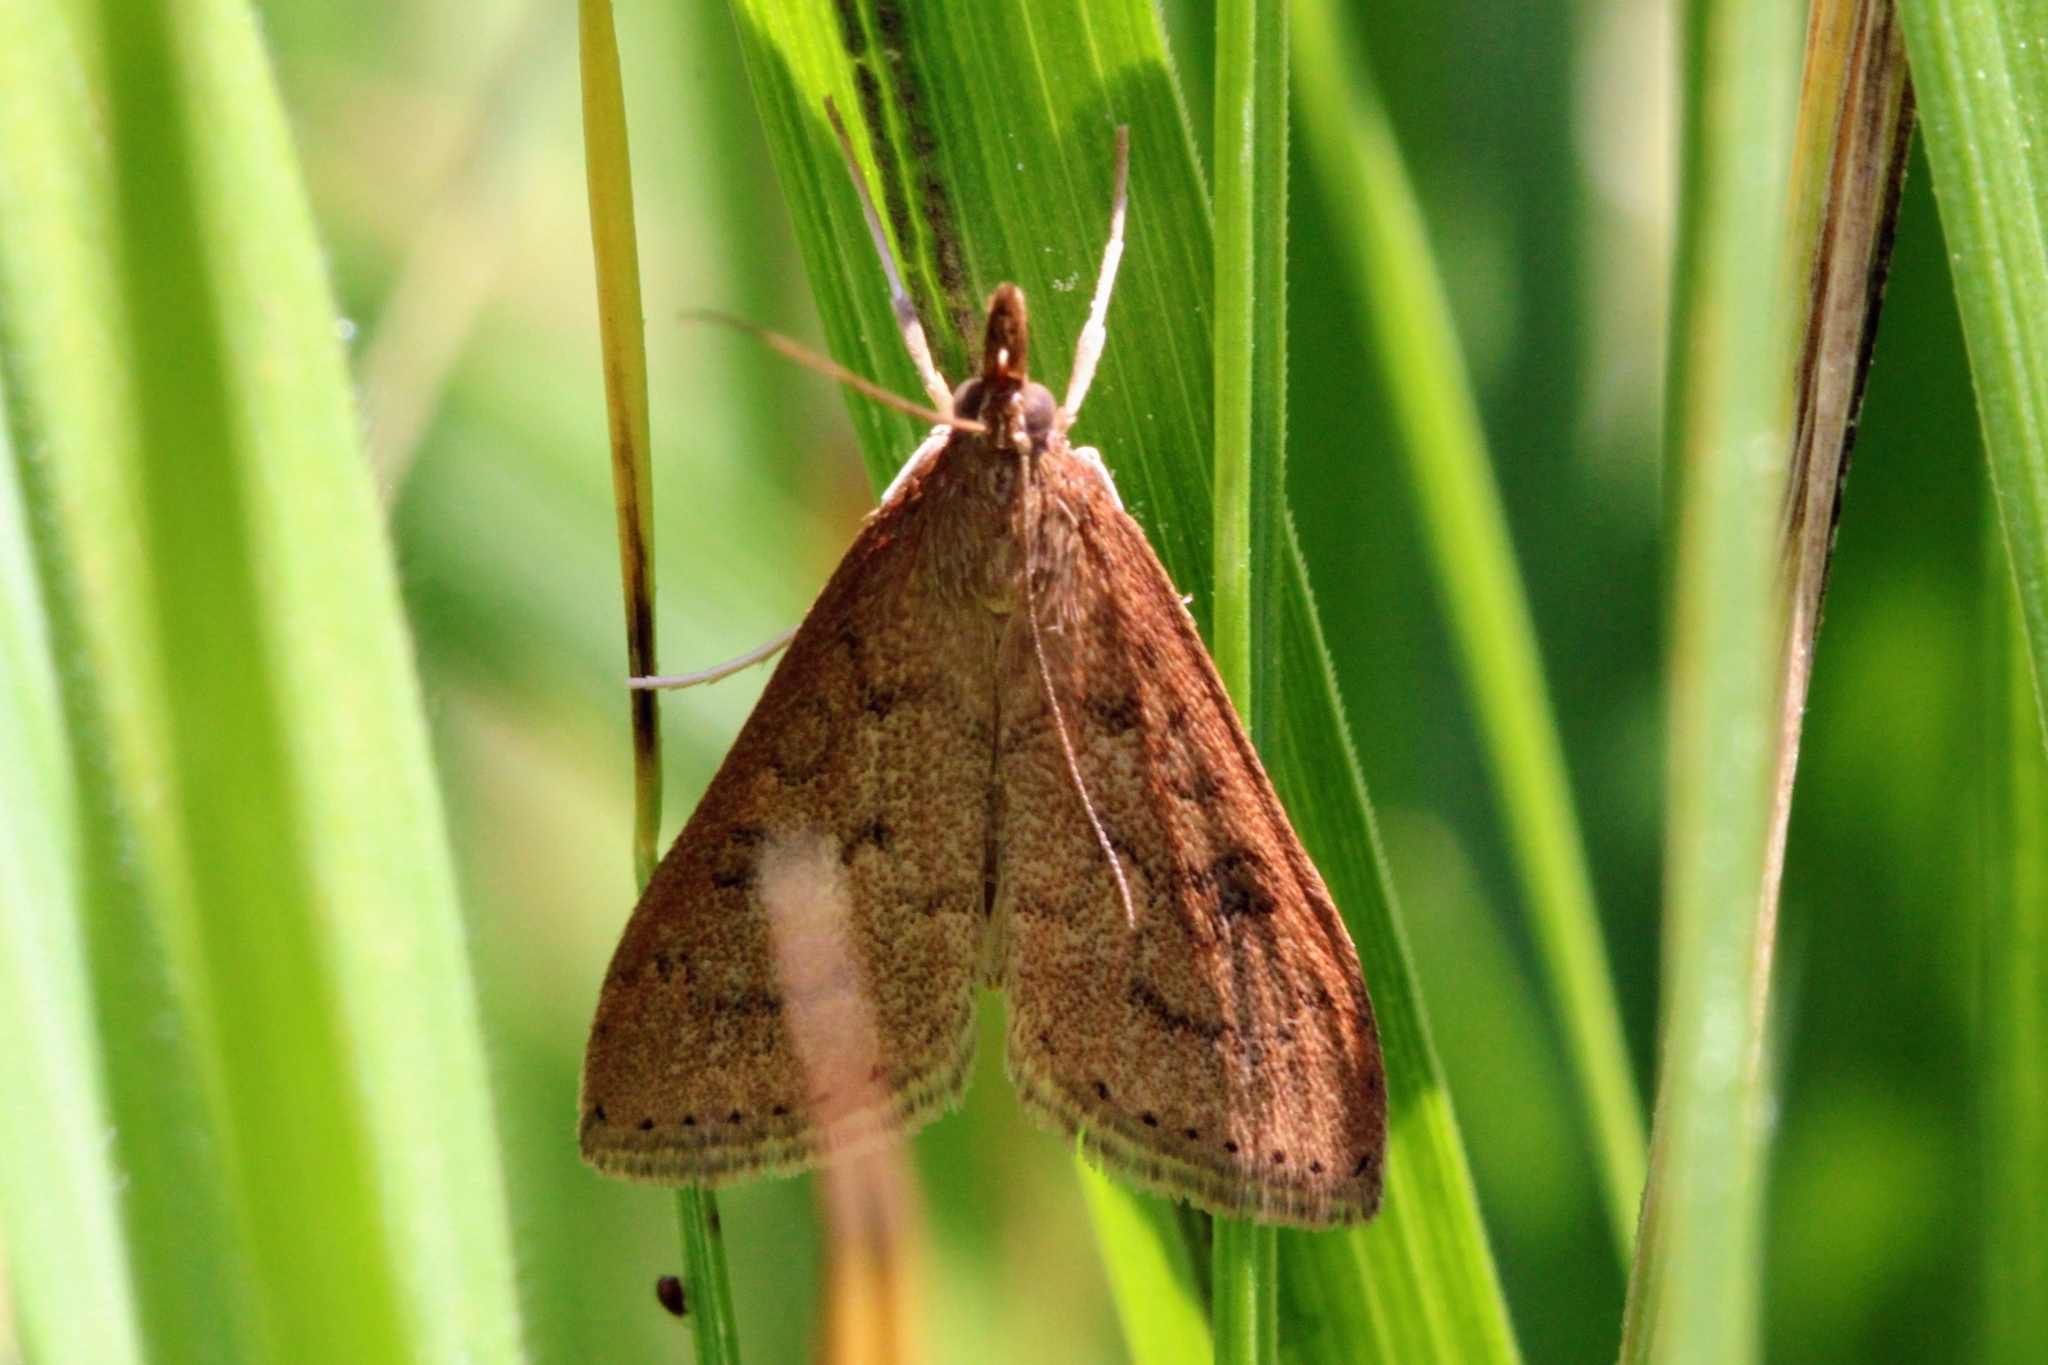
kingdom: Animalia
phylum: Arthropoda
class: Insecta
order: Lepidoptera
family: Crambidae
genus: Udea
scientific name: Udea rubigalis
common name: Celery leaftier moth
